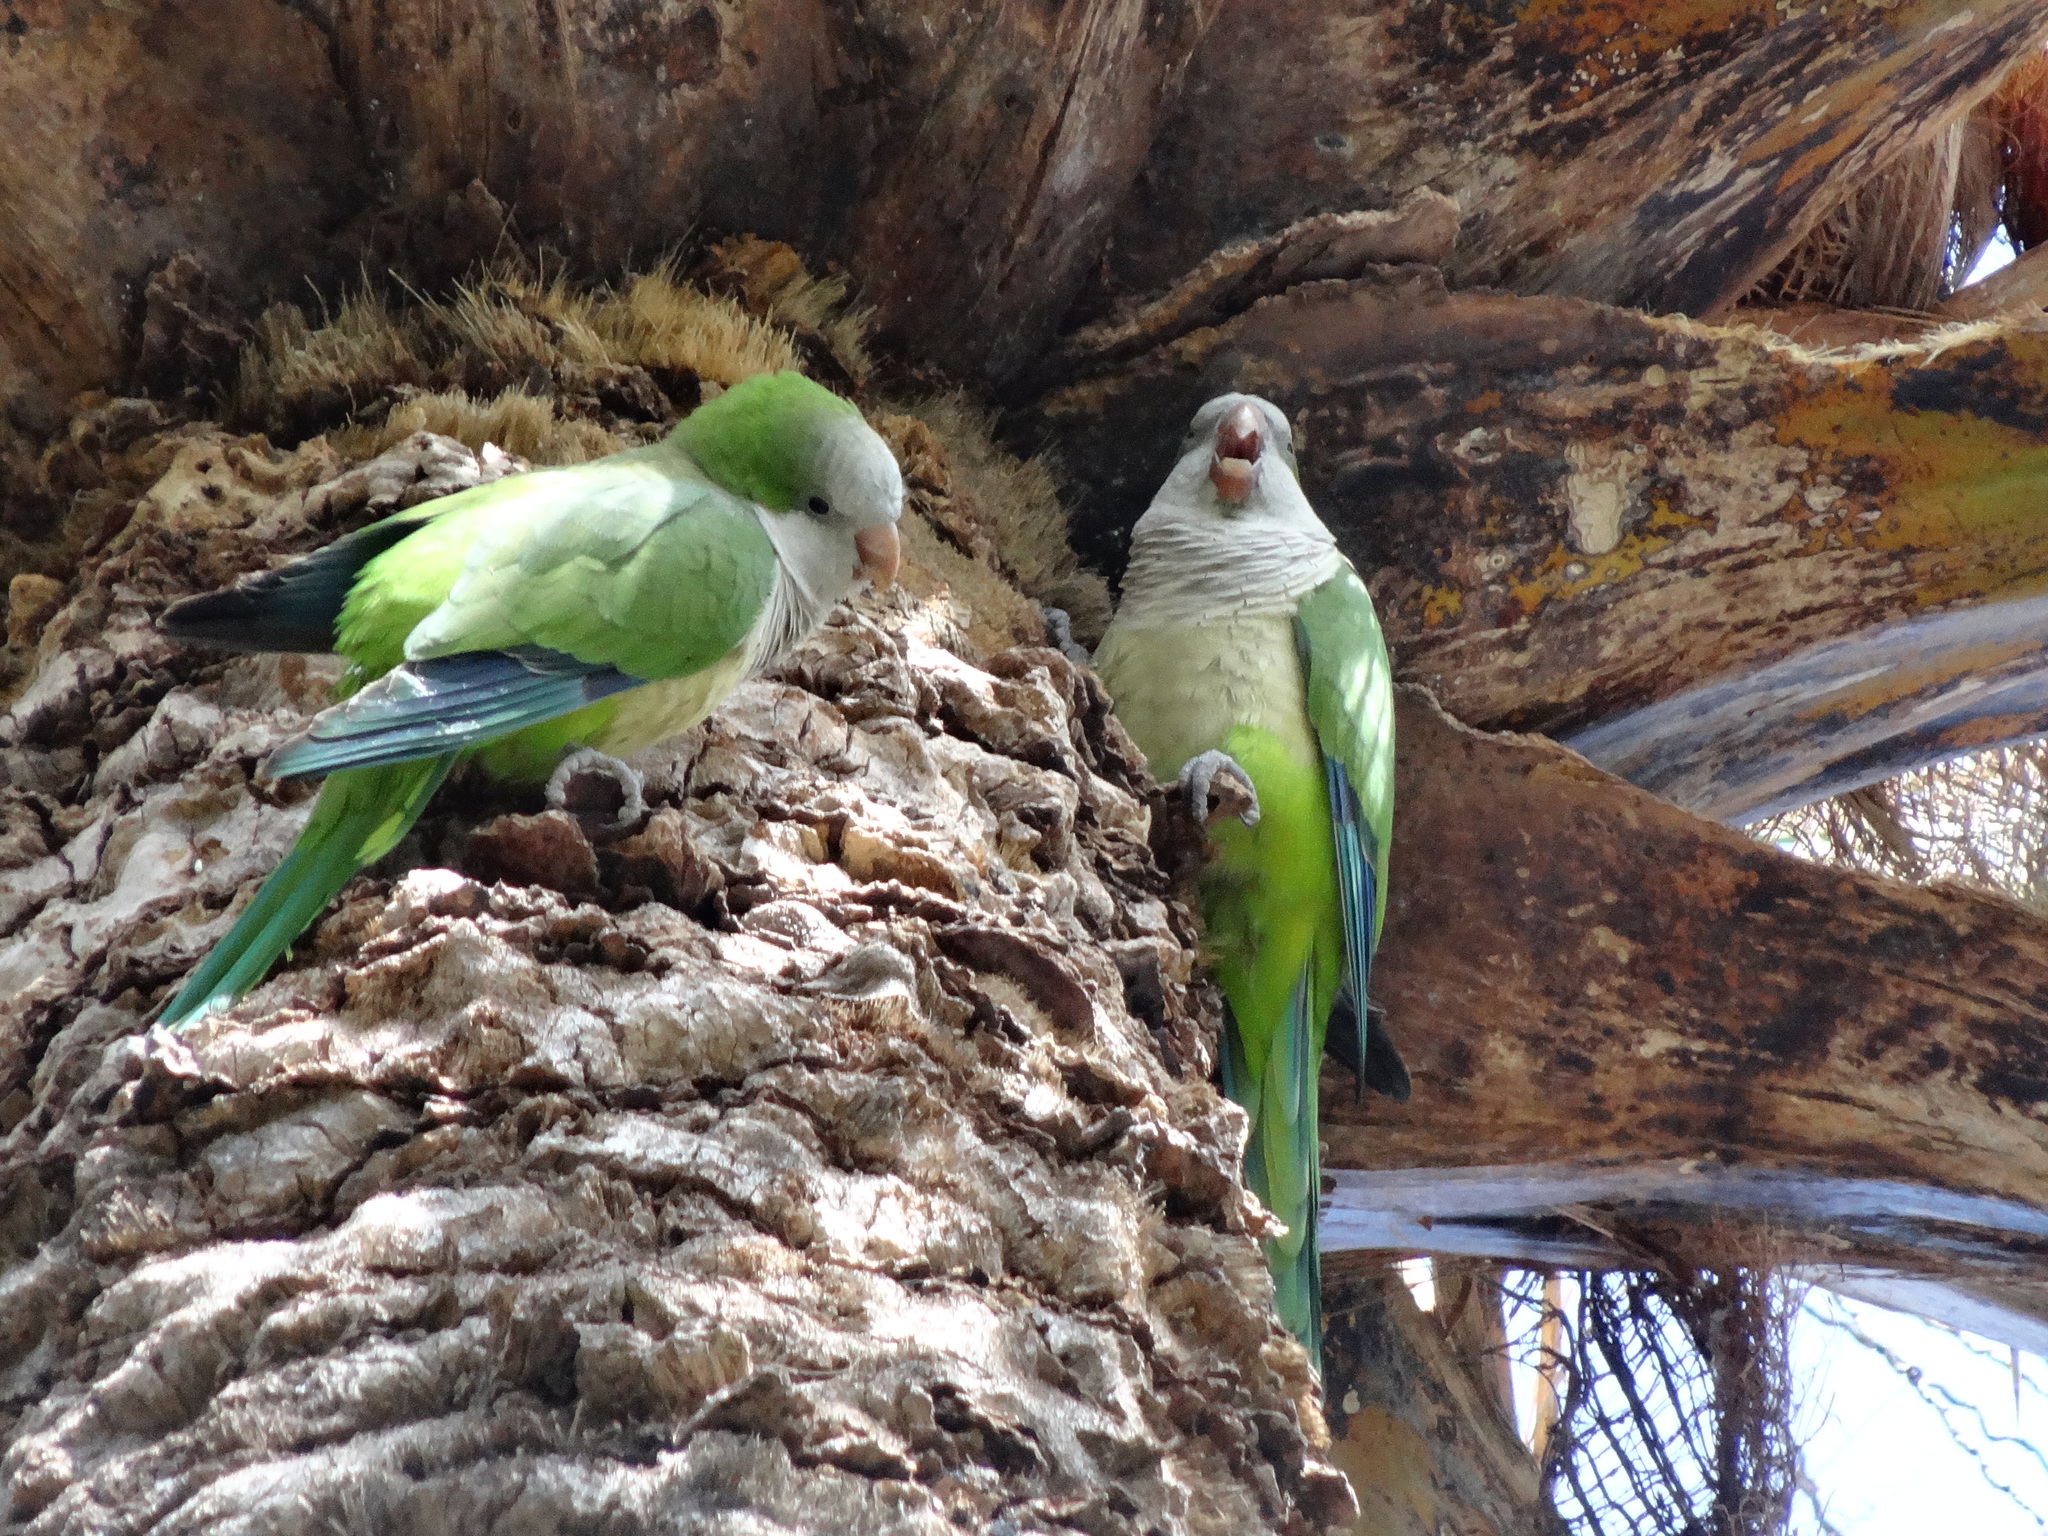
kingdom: Animalia
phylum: Chordata
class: Aves
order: Psittaciformes
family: Psittacidae
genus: Myiopsitta
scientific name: Myiopsitta monachus
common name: Monk parakeet
